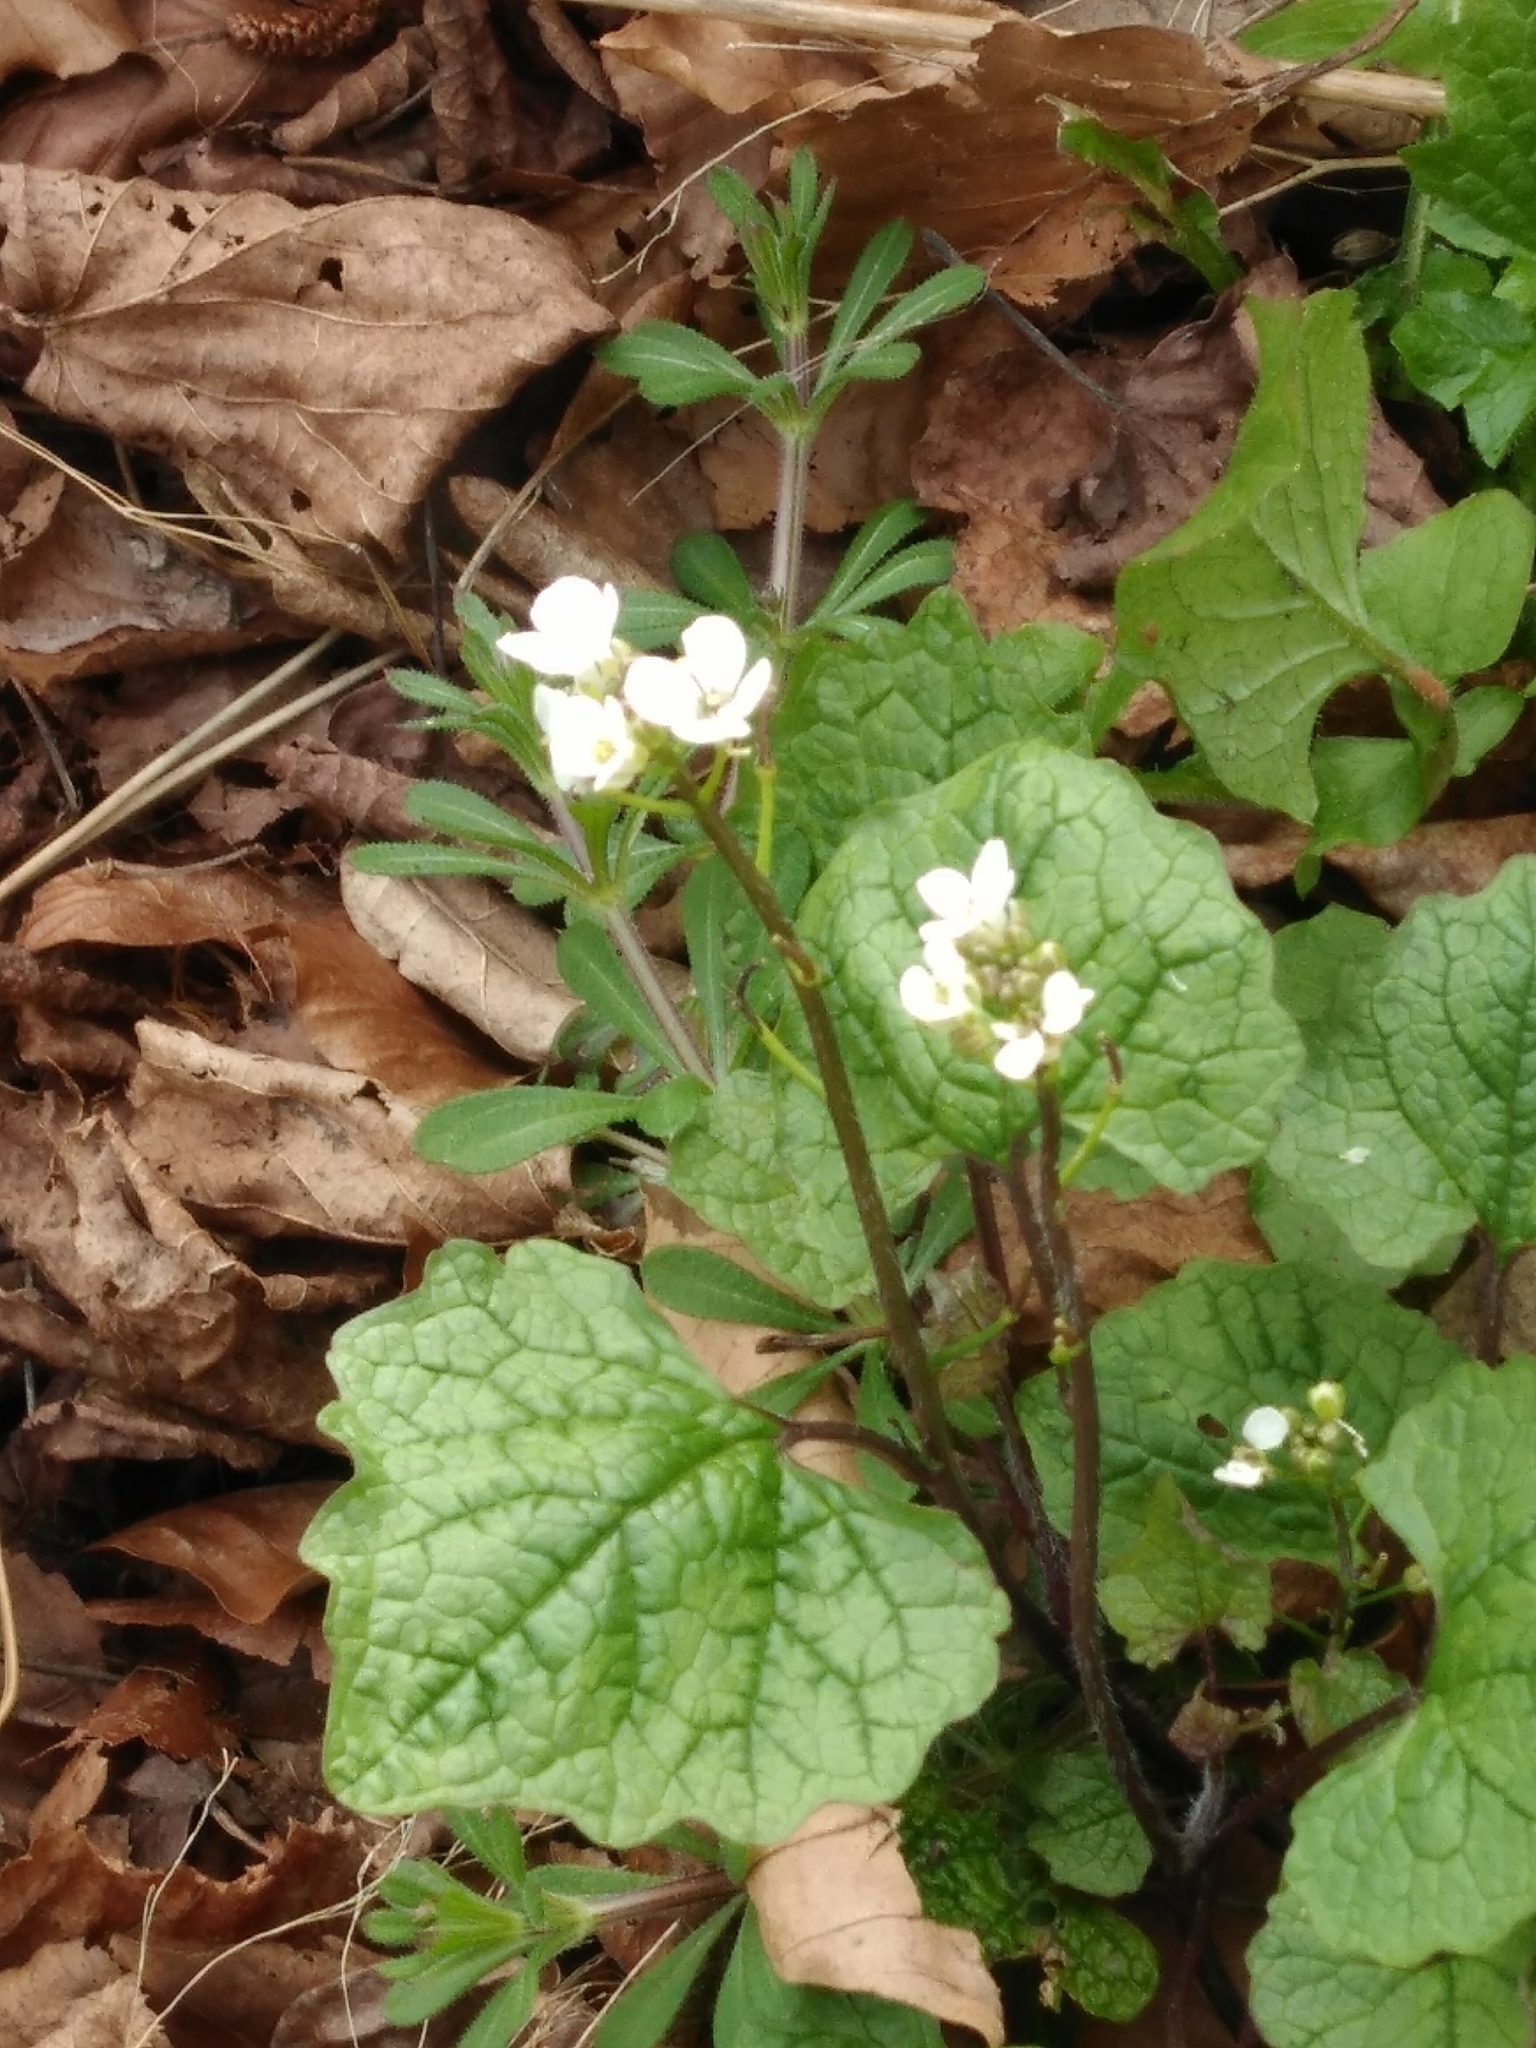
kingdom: Plantae
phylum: Tracheophyta
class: Magnoliopsida
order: Brassicales
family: Brassicaceae
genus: Alliaria
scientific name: Alliaria petiolata
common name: Garlic mustard
